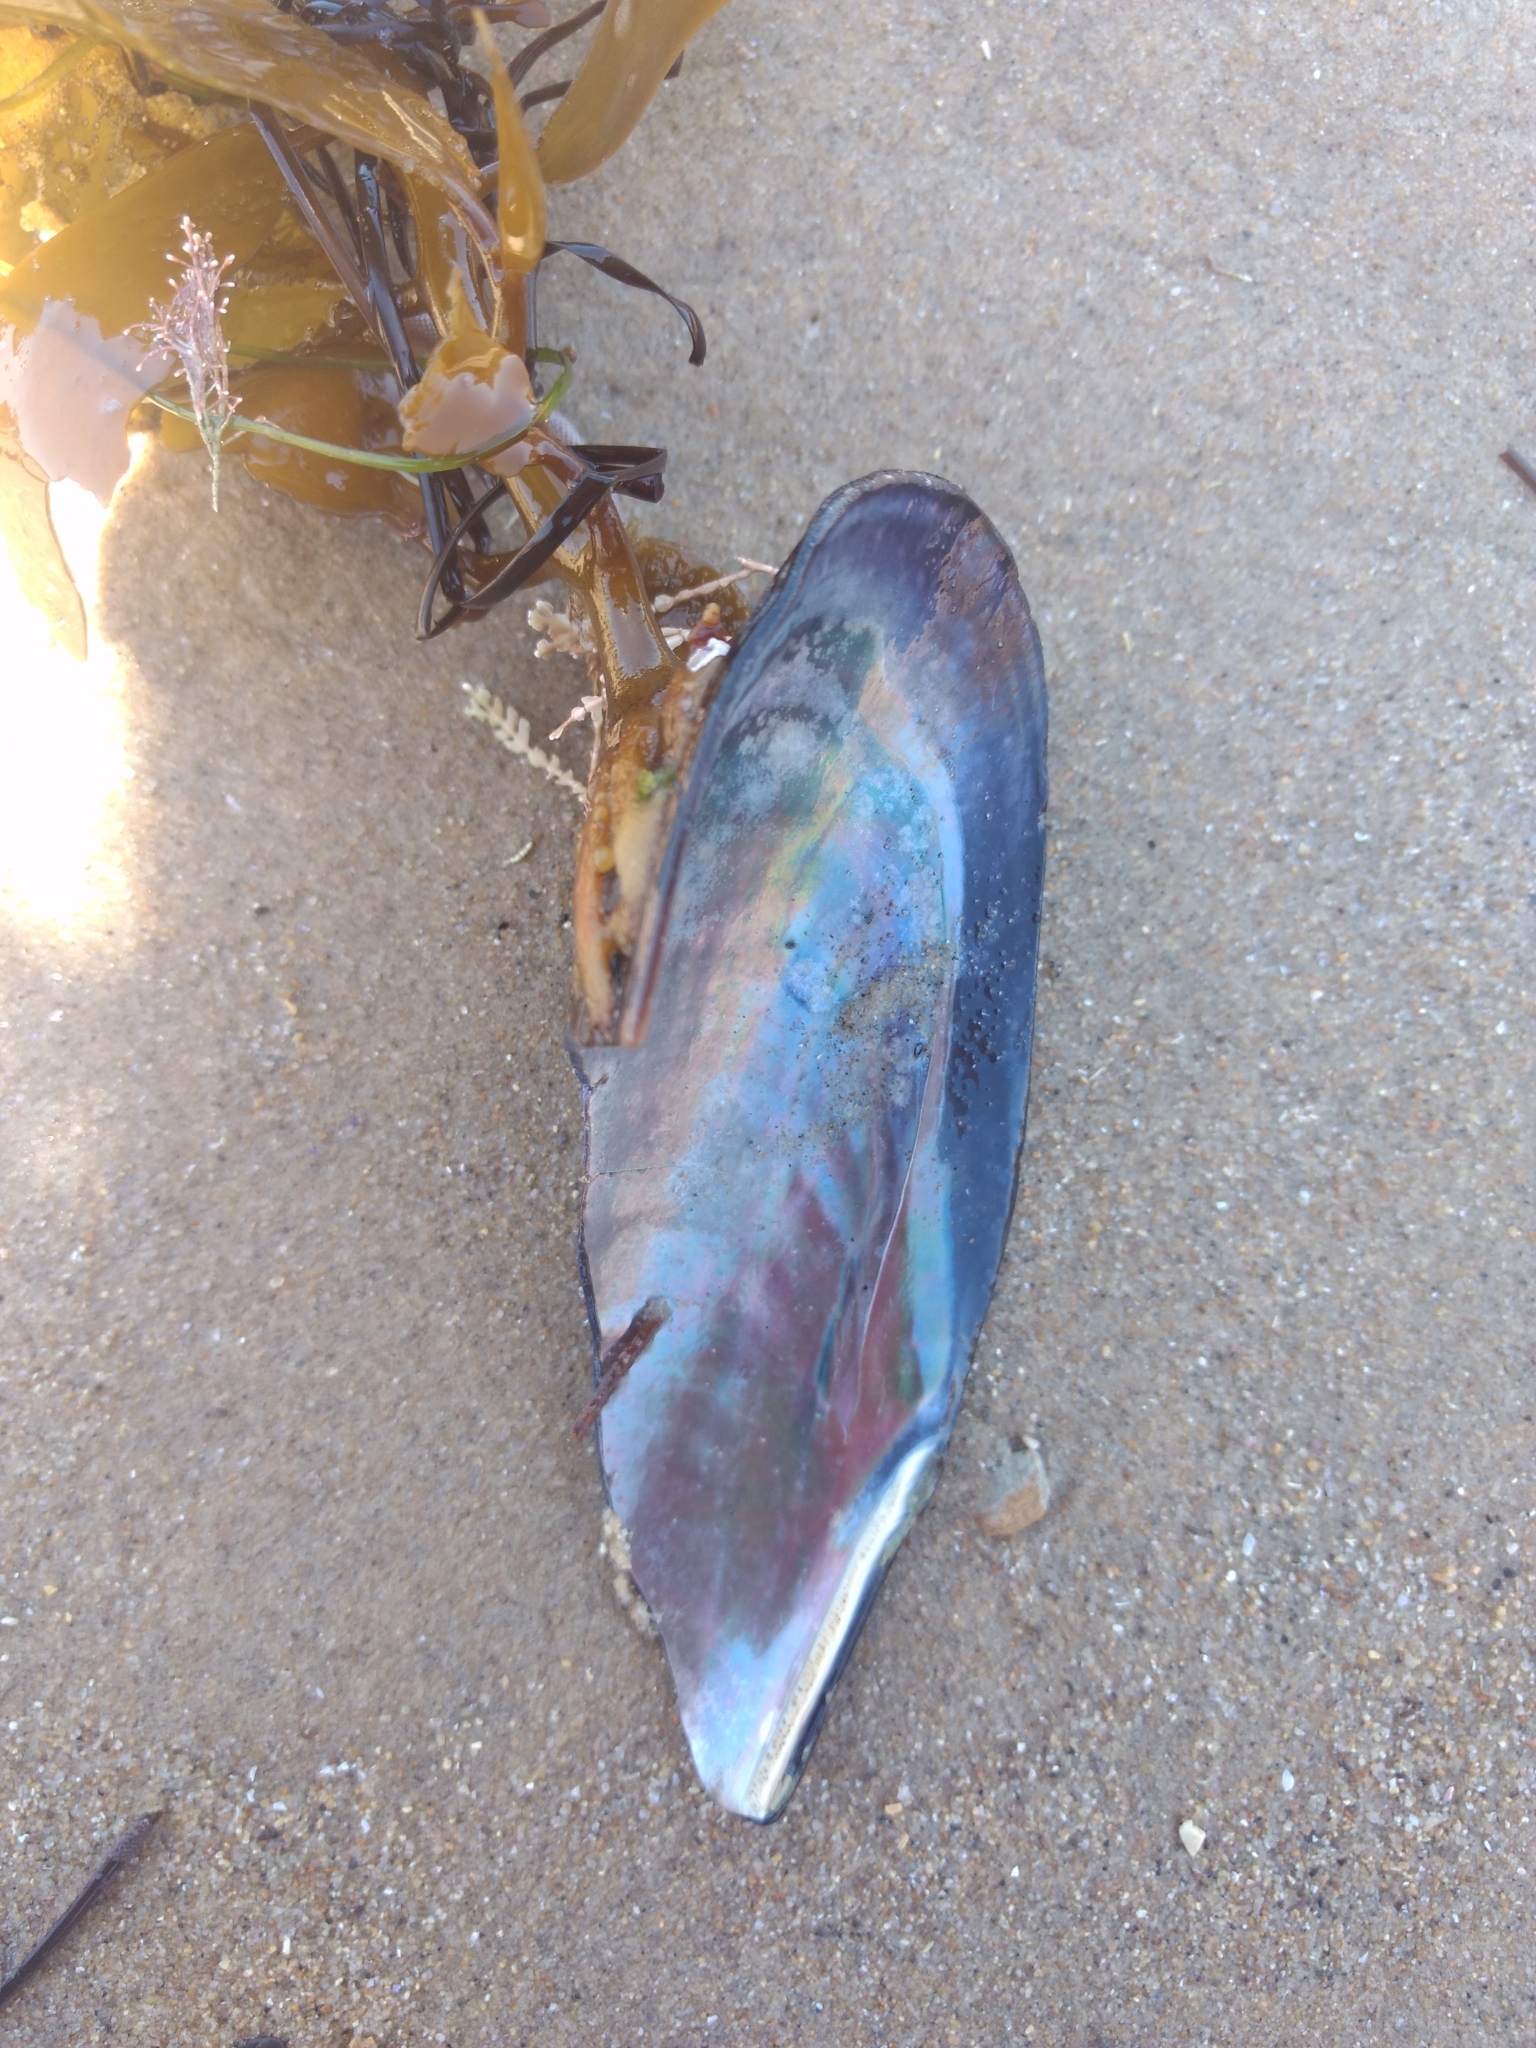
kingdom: Animalia
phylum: Mollusca
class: Bivalvia
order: Mytilida
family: Mytilidae
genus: Mytilus
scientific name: Mytilus californianus
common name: California mussel
